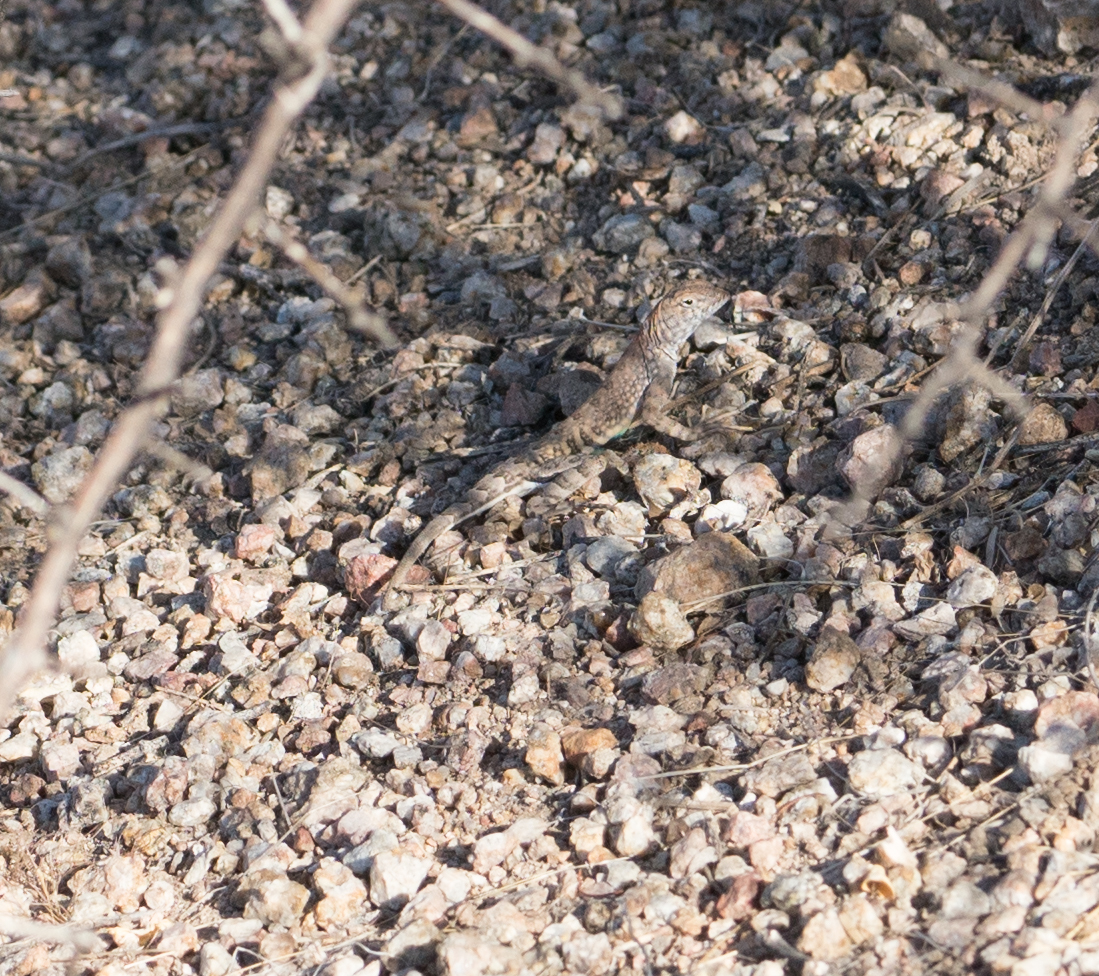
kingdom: Animalia
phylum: Chordata
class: Squamata
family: Phrynosomatidae
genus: Cophosaurus
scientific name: Cophosaurus texanus
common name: Greater earless lizard
